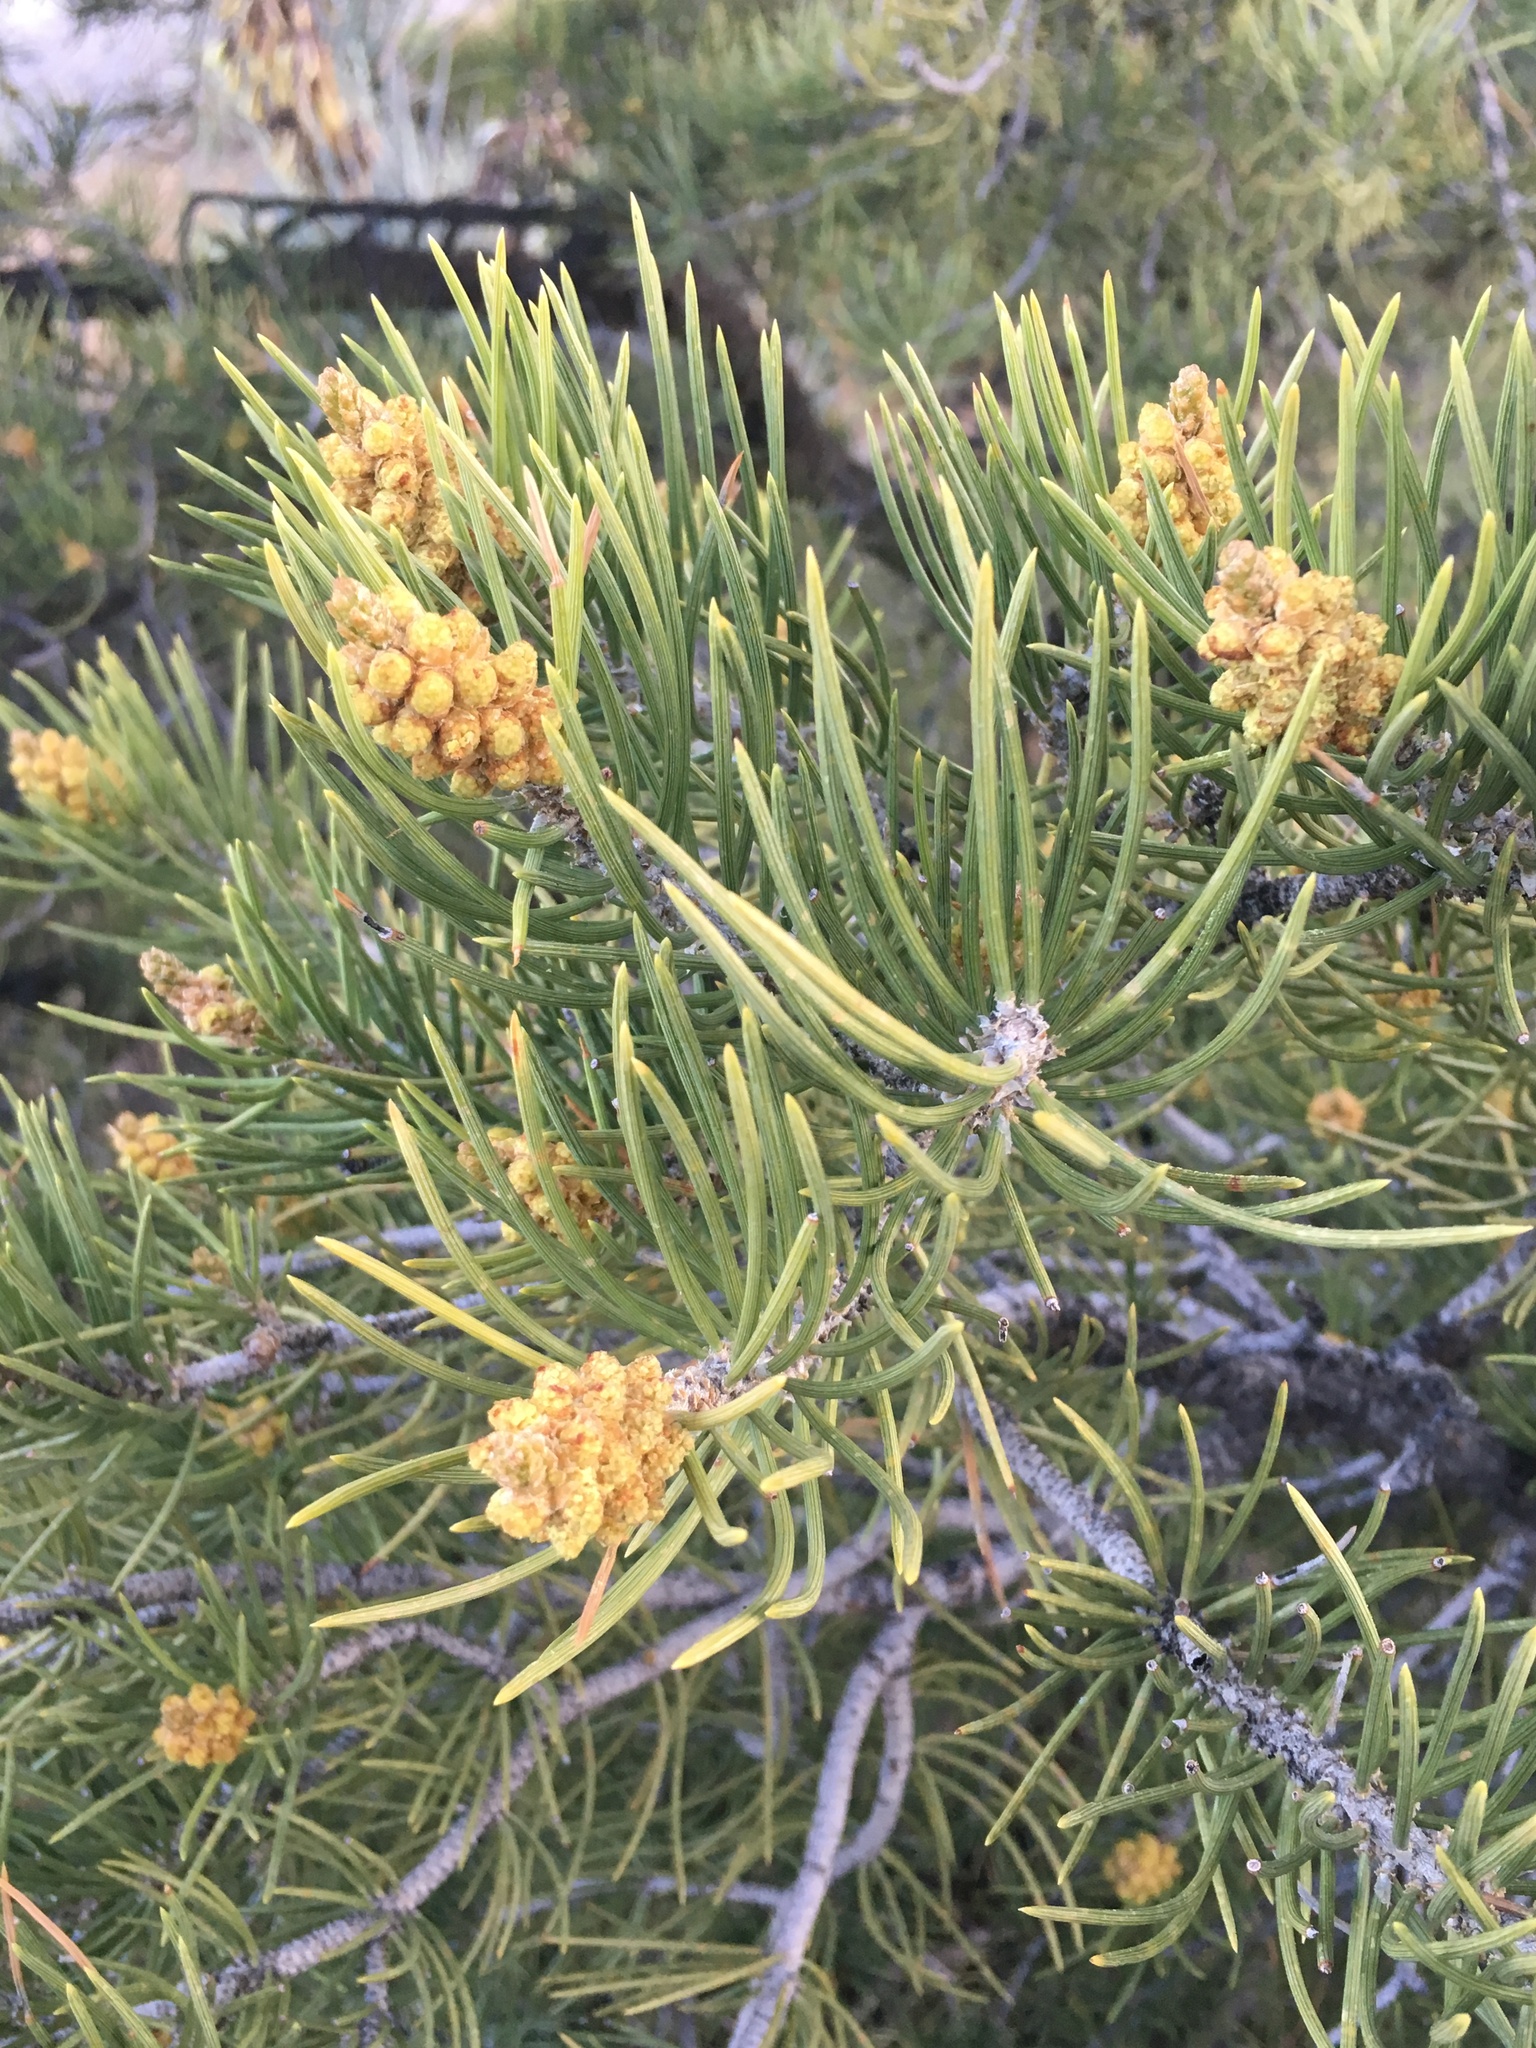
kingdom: Plantae
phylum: Tracheophyta
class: Pinopsida
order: Pinales
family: Pinaceae
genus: Pinus
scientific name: Pinus monophylla
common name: One-leaved nut pine
